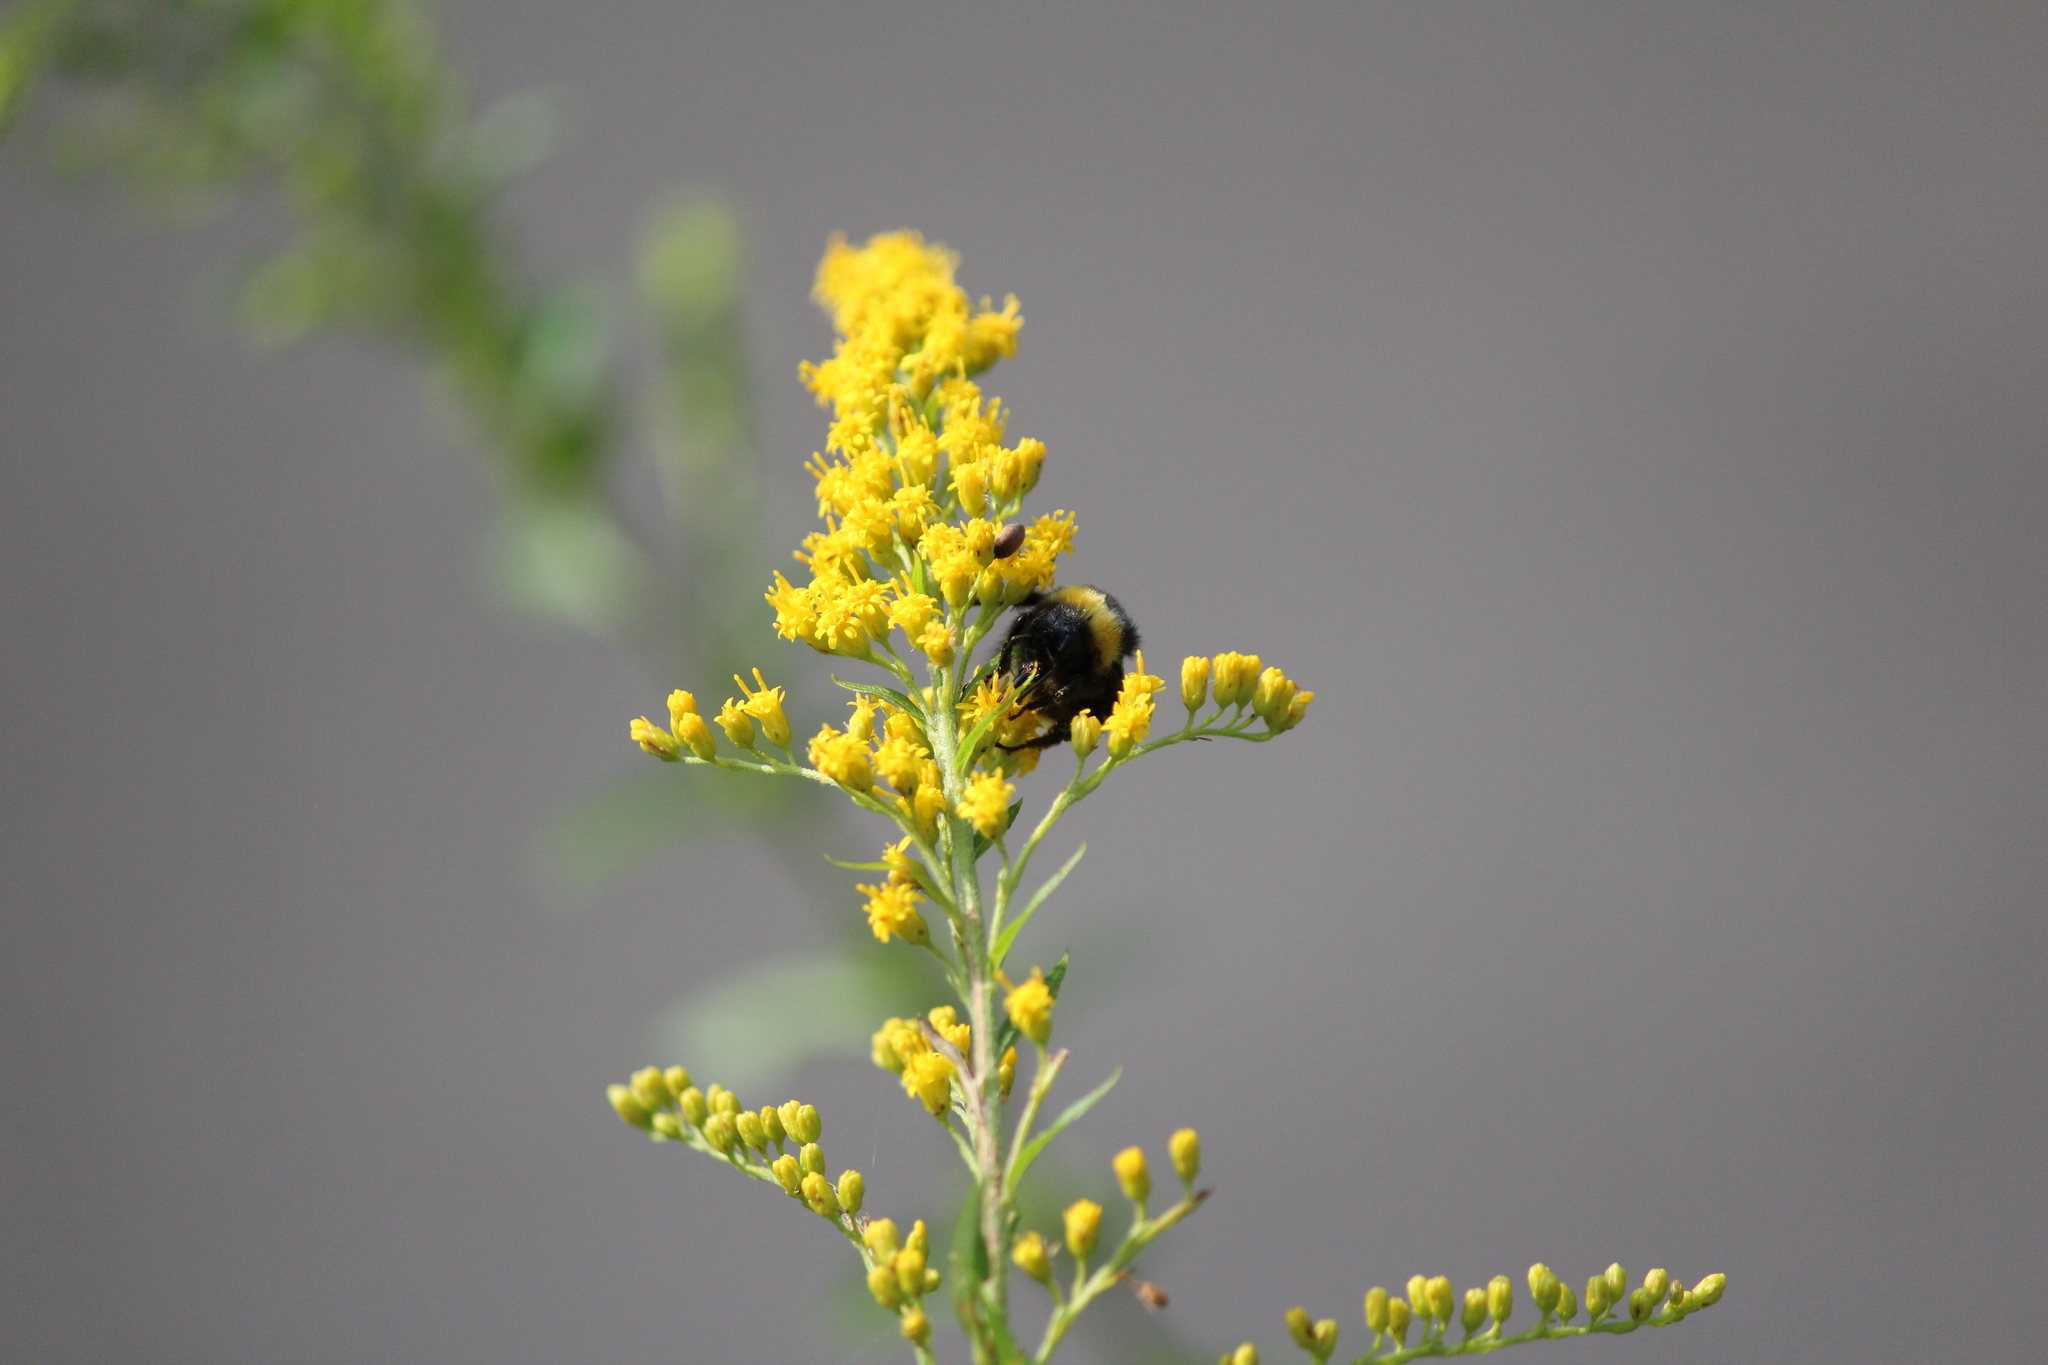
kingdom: Animalia
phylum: Arthropoda
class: Insecta
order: Hymenoptera
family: Apidae
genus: Bombus
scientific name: Bombus
